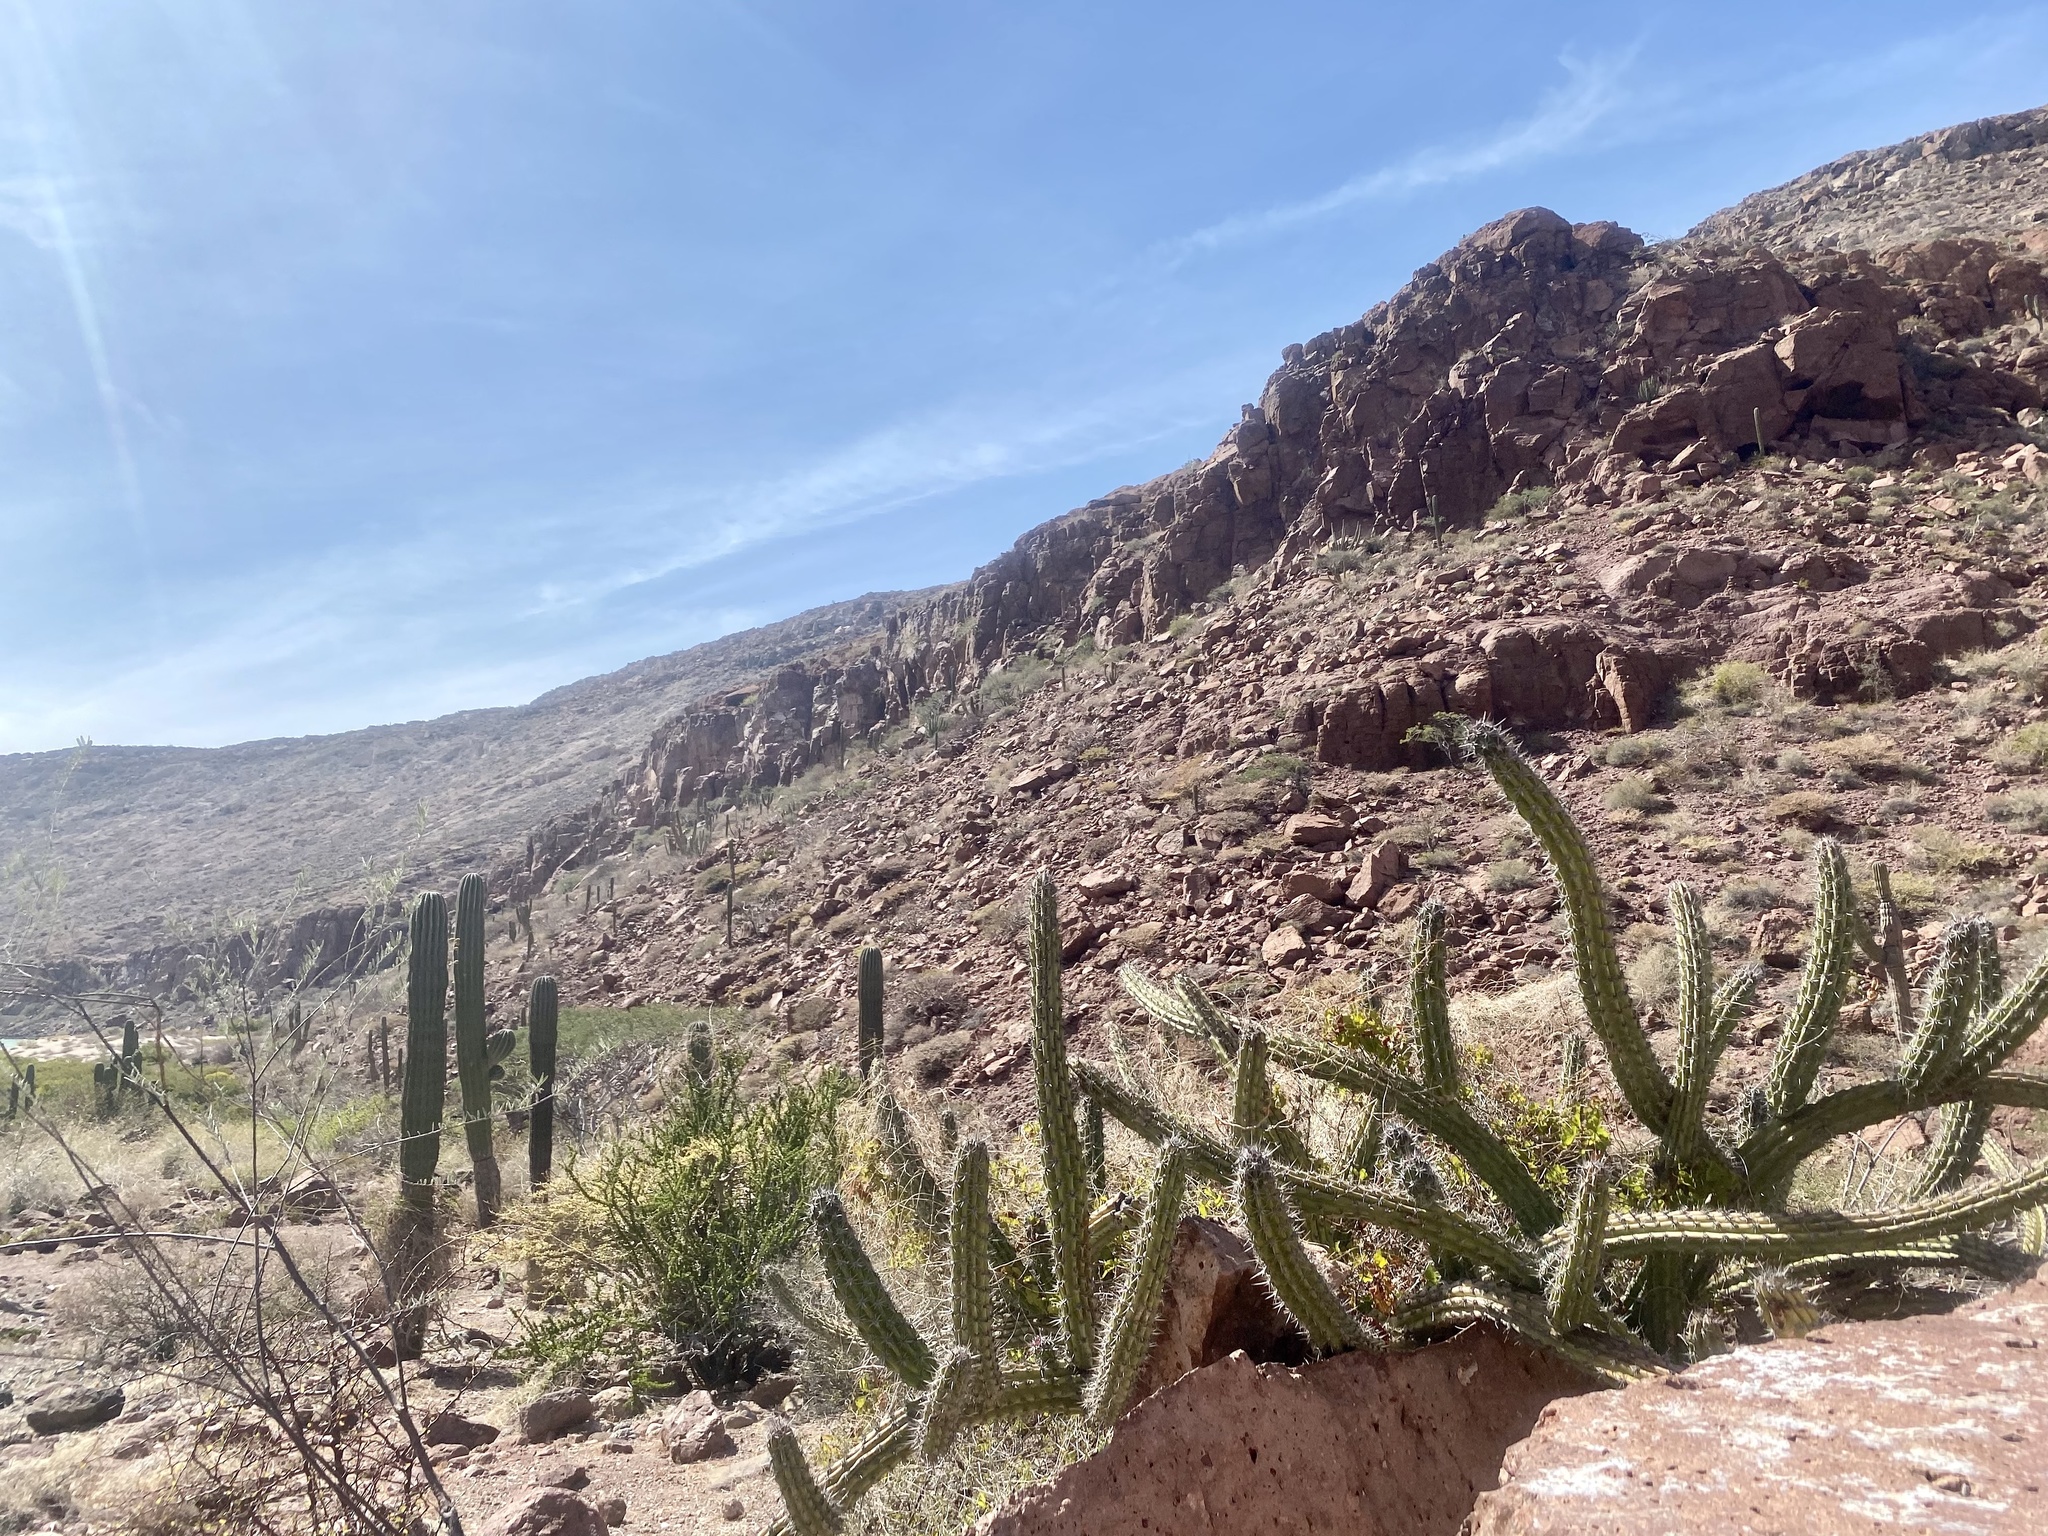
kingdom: Plantae
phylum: Tracheophyta
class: Magnoliopsida
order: Caryophyllales
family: Cactaceae
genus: Stenocereus
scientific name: Stenocereus gummosus
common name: Dagger cactus
